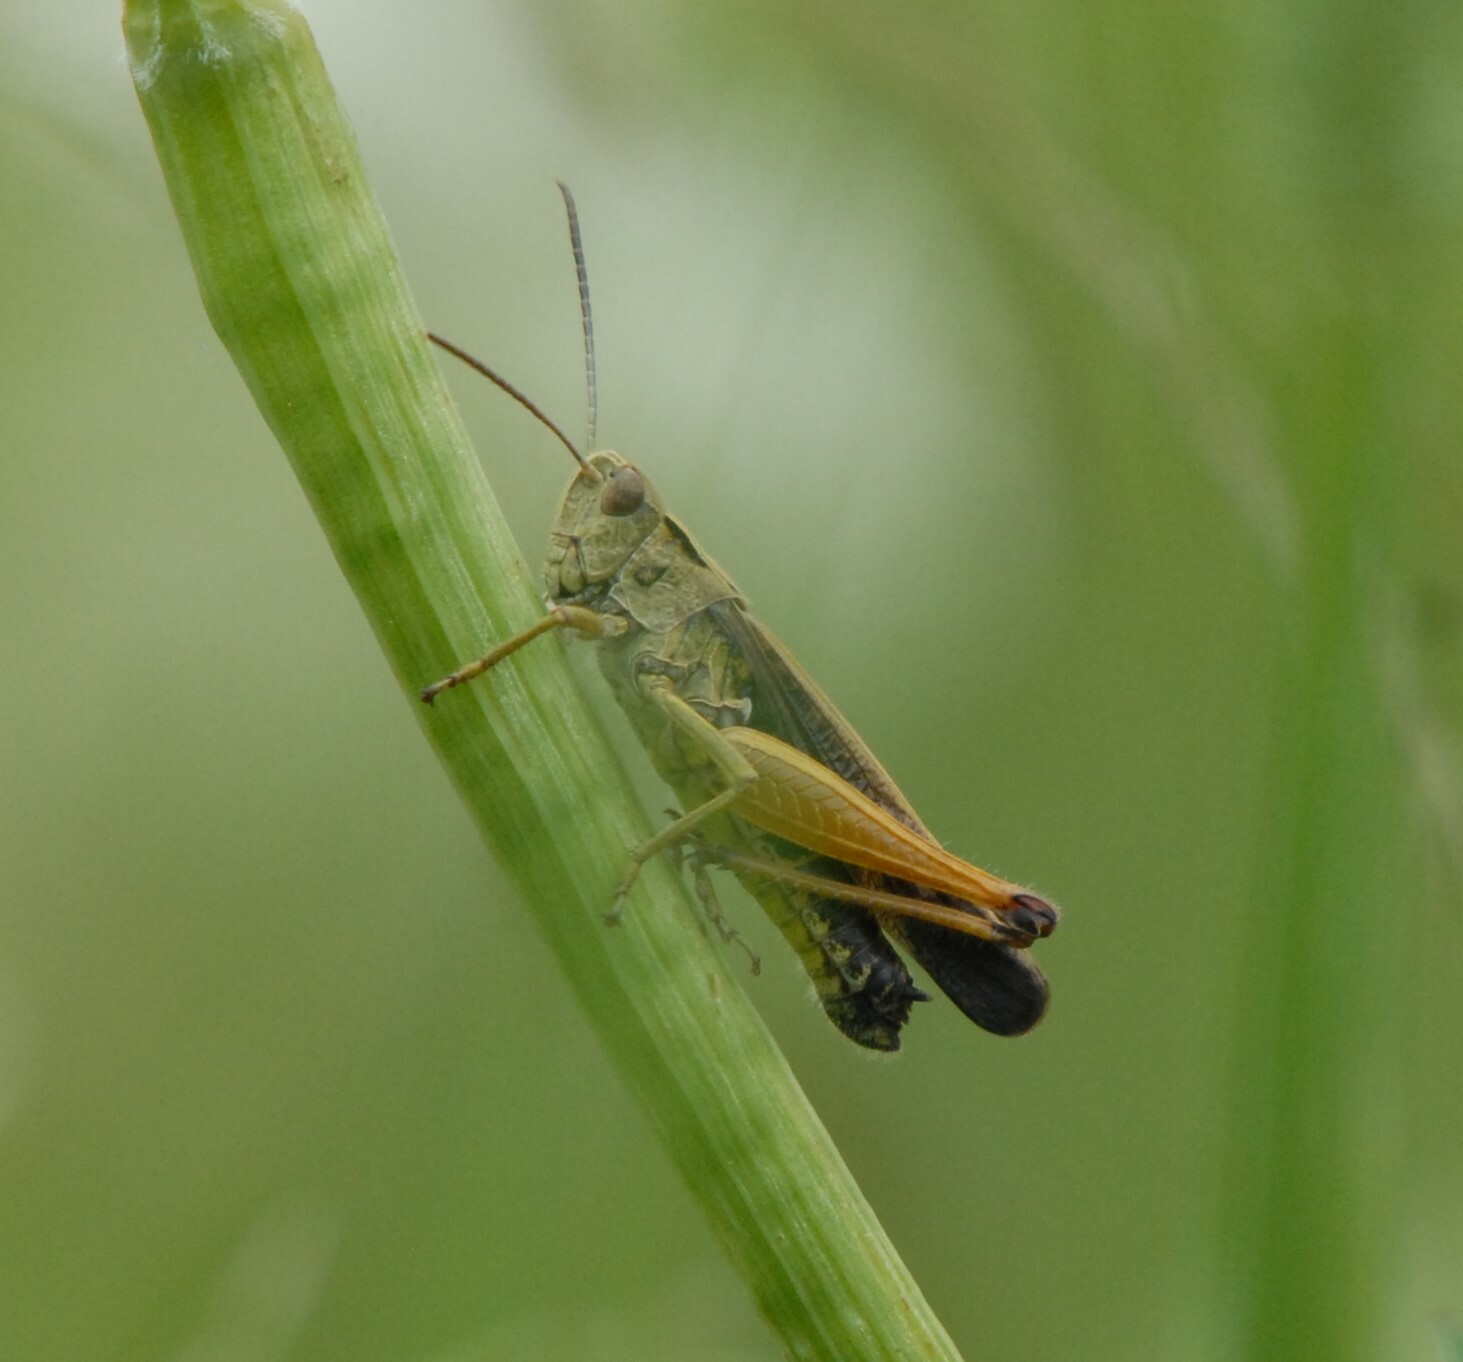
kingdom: Animalia
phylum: Arthropoda
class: Insecta
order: Orthoptera
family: Acrididae
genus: Omocestus
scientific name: Omocestus viridulus
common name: Common green grasshopper
